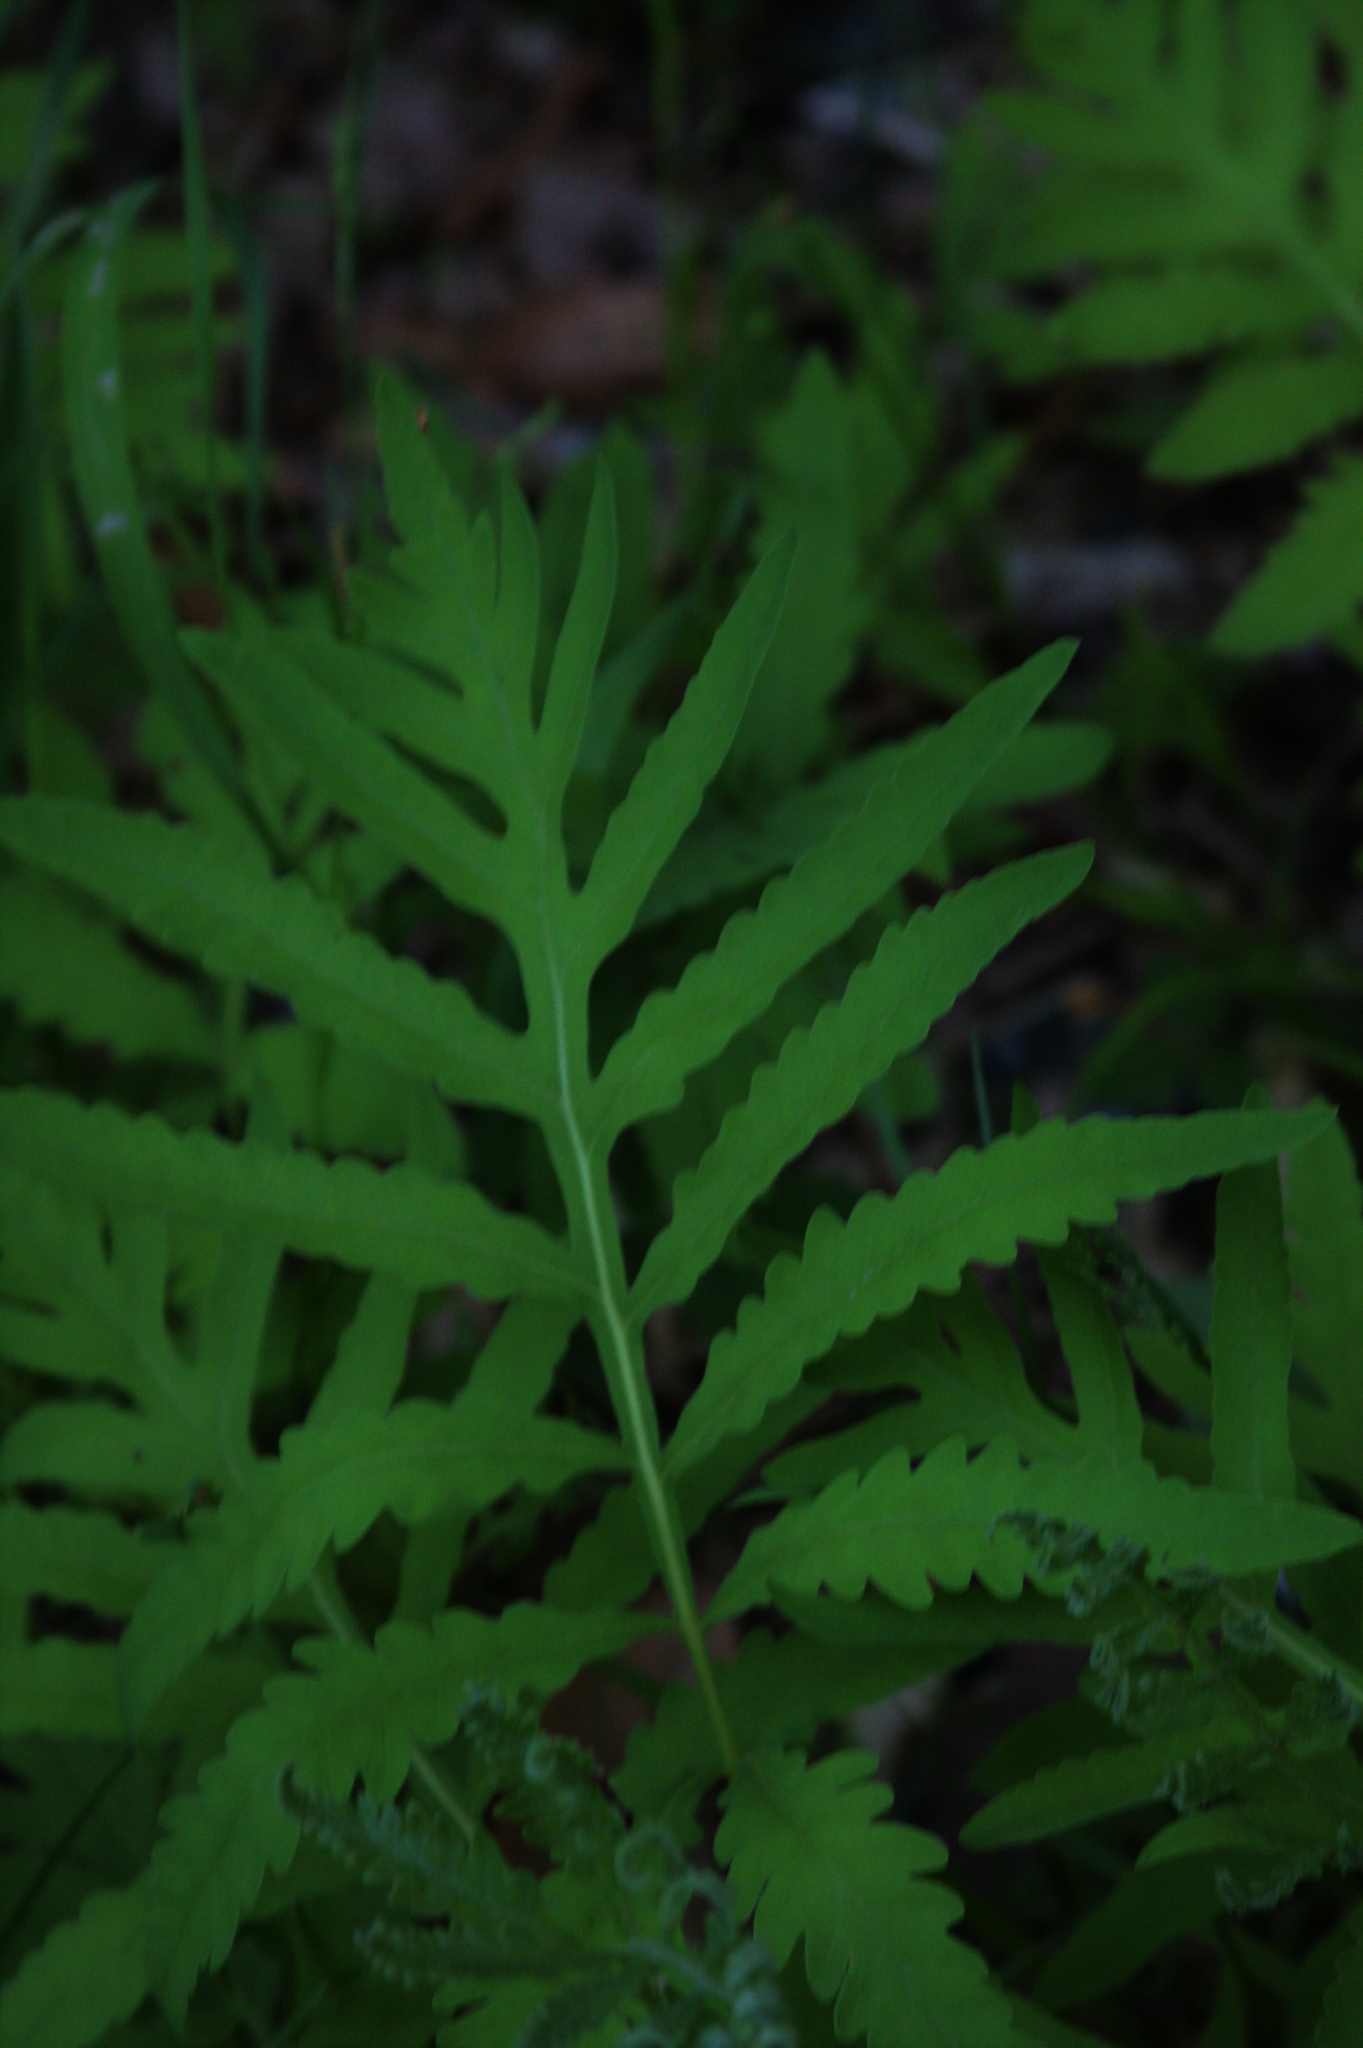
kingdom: Plantae
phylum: Tracheophyta
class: Polypodiopsida
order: Polypodiales
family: Onocleaceae
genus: Onoclea
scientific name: Onoclea sensibilis
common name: Sensitive fern
